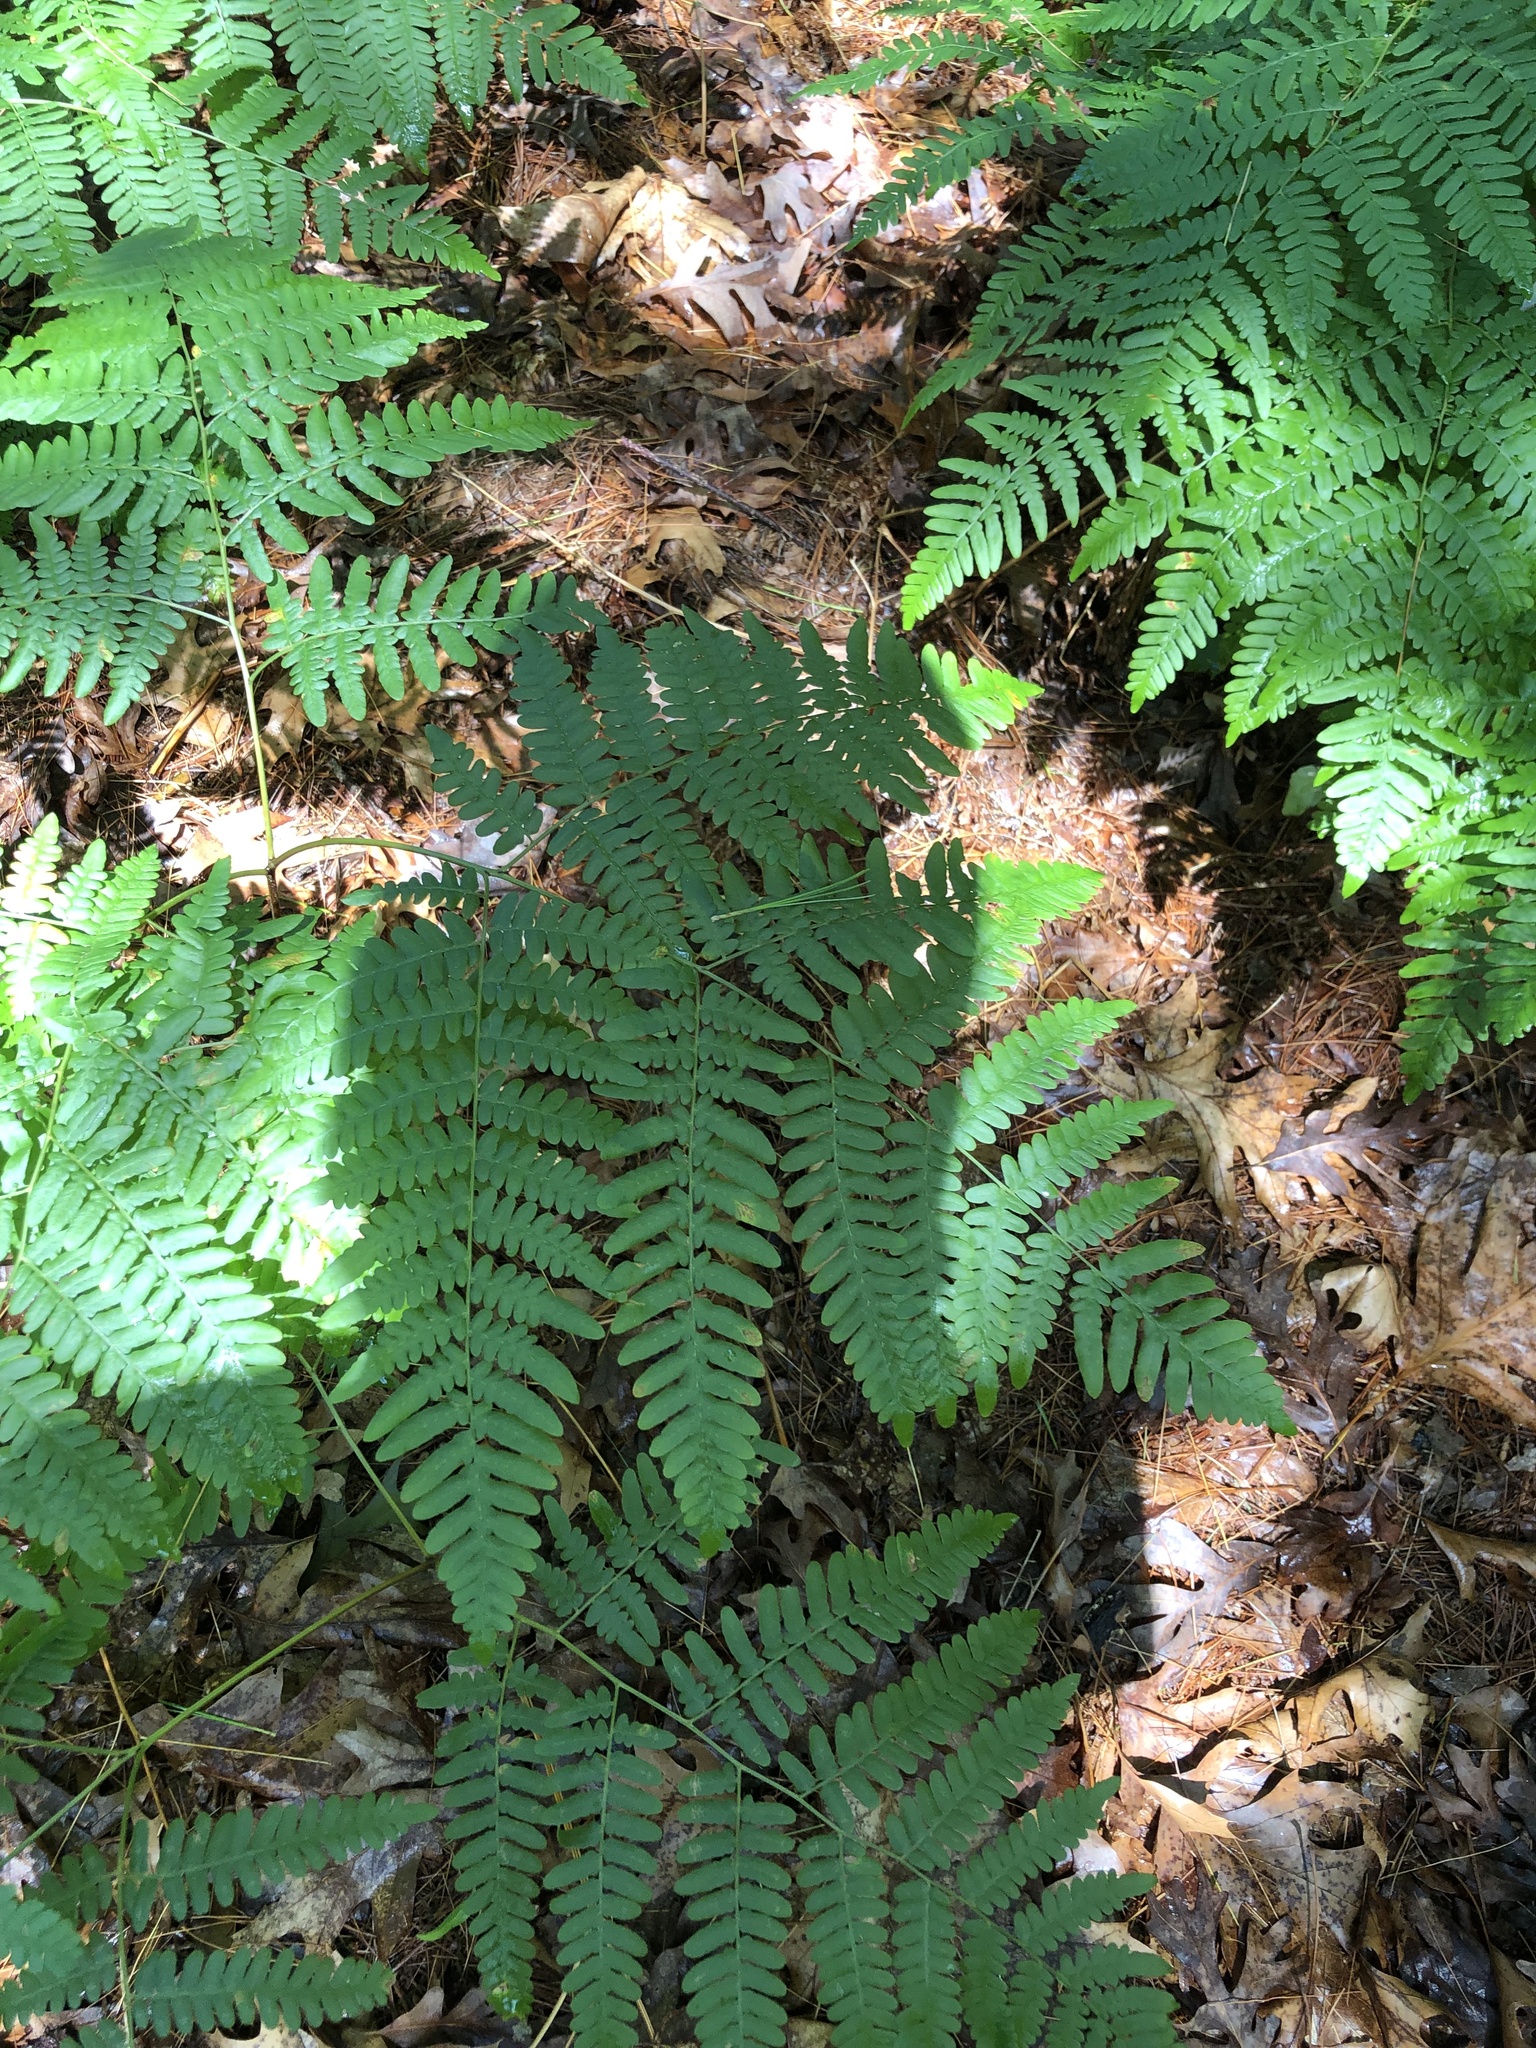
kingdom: Plantae
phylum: Tracheophyta
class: Polypodiopsida
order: Polypodiales
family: Dennstaedtiaceae
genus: Pteridium
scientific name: Pteridium aquilinum
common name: Bracken
